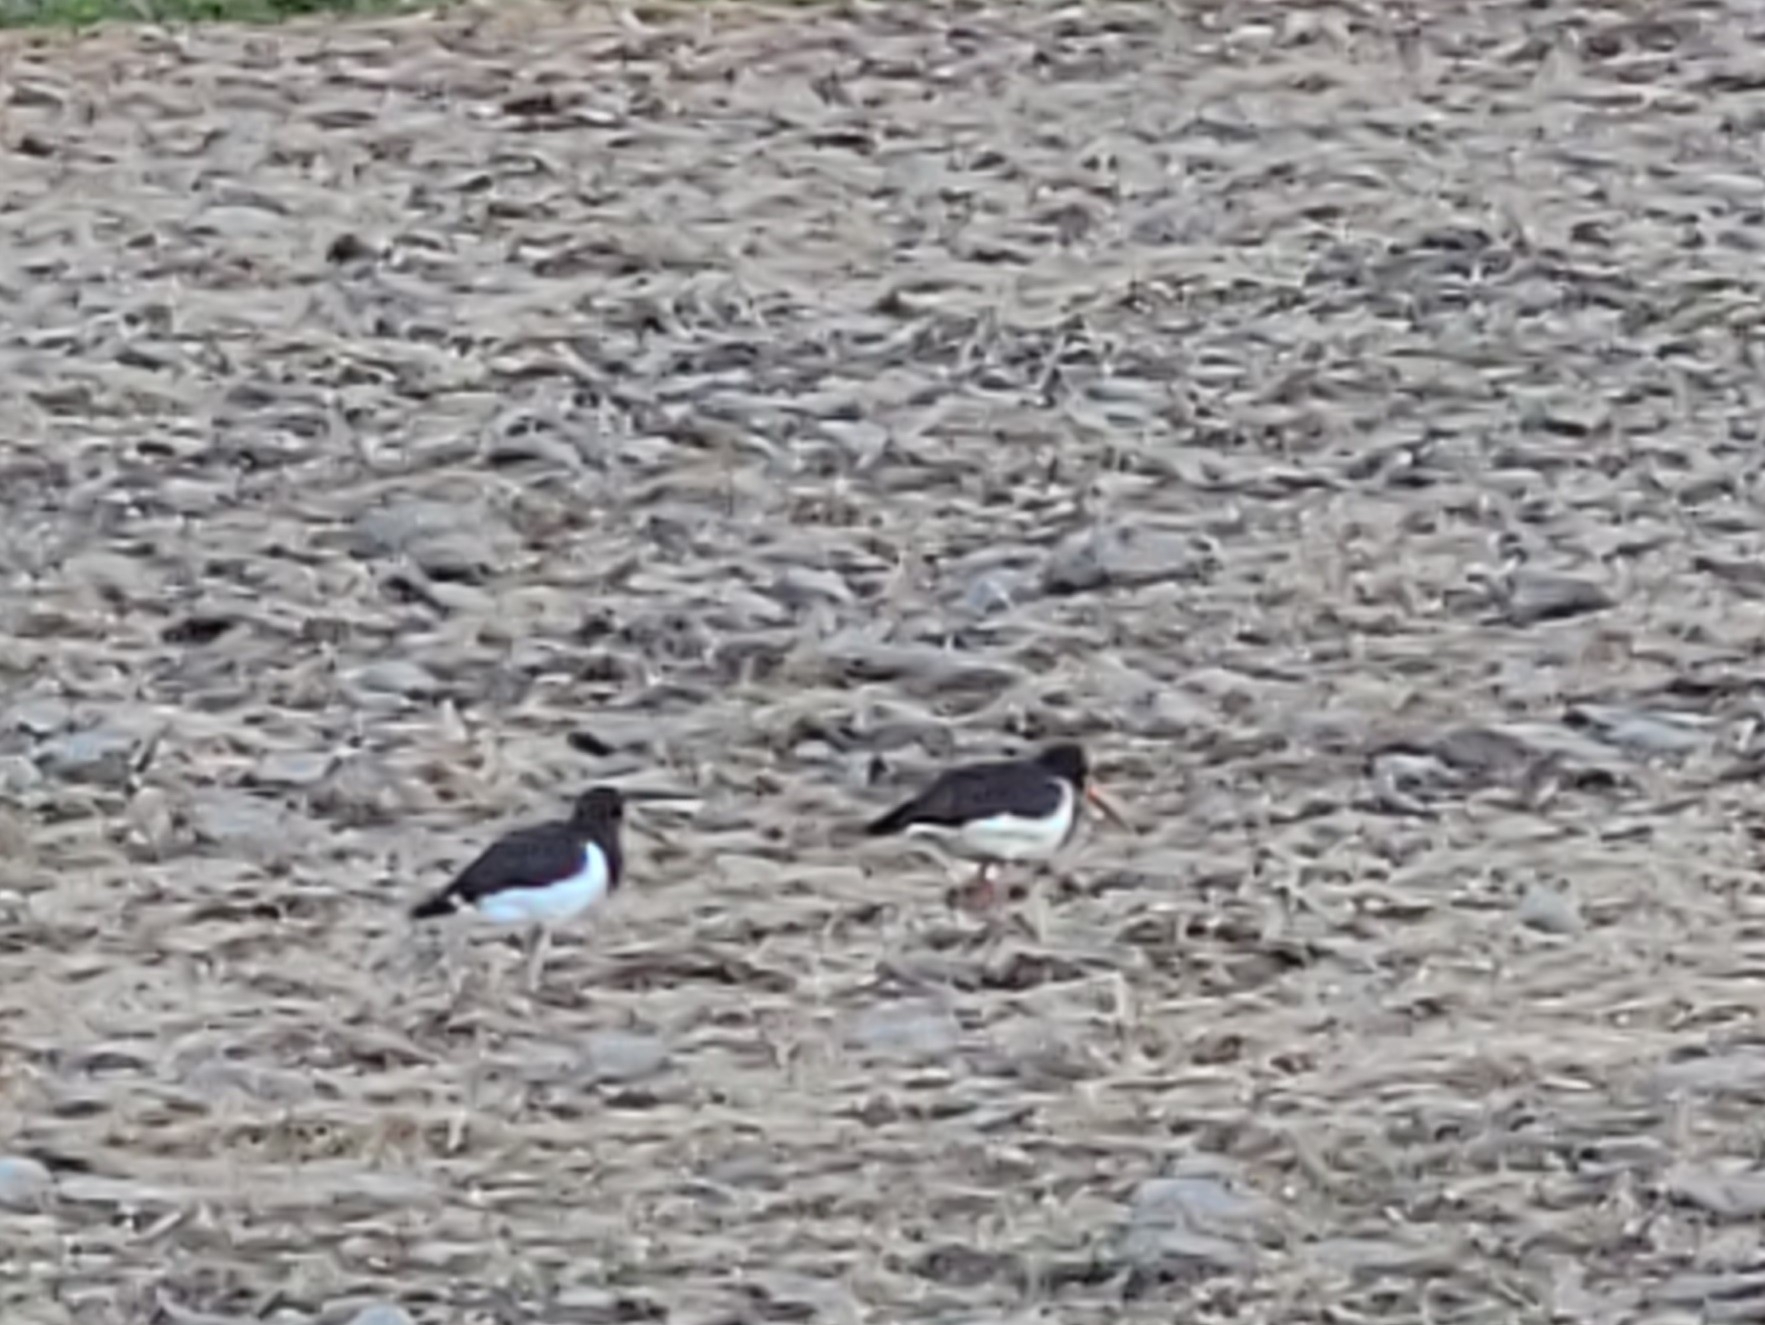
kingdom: Animalia
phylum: Chordata
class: Aves
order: Charadriiformes
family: Haematopodidae
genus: Haematopus
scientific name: Haematopus finschi
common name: South island oystercatcher
